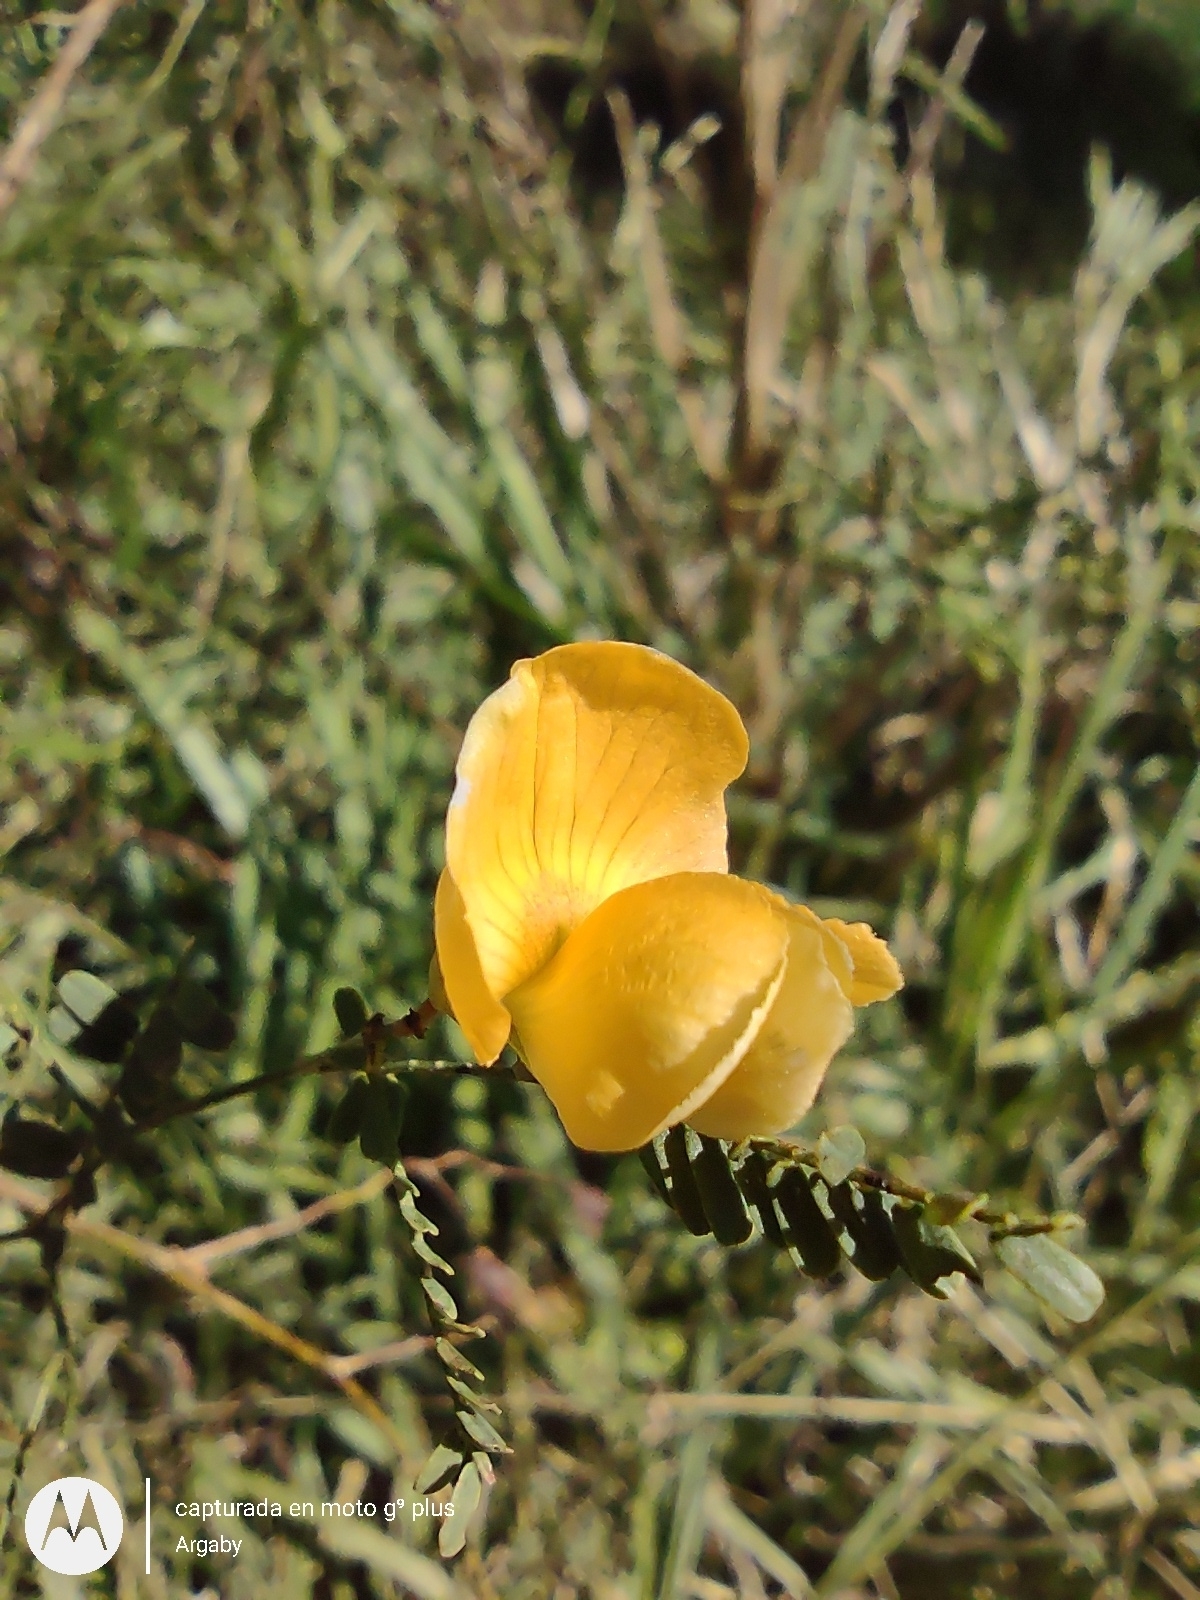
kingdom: Plantae
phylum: Tracheophyta
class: Magnoliopsida
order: Fabales
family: Fabaceae
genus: Aeschynomene
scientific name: Aeschynomene montevidensis
